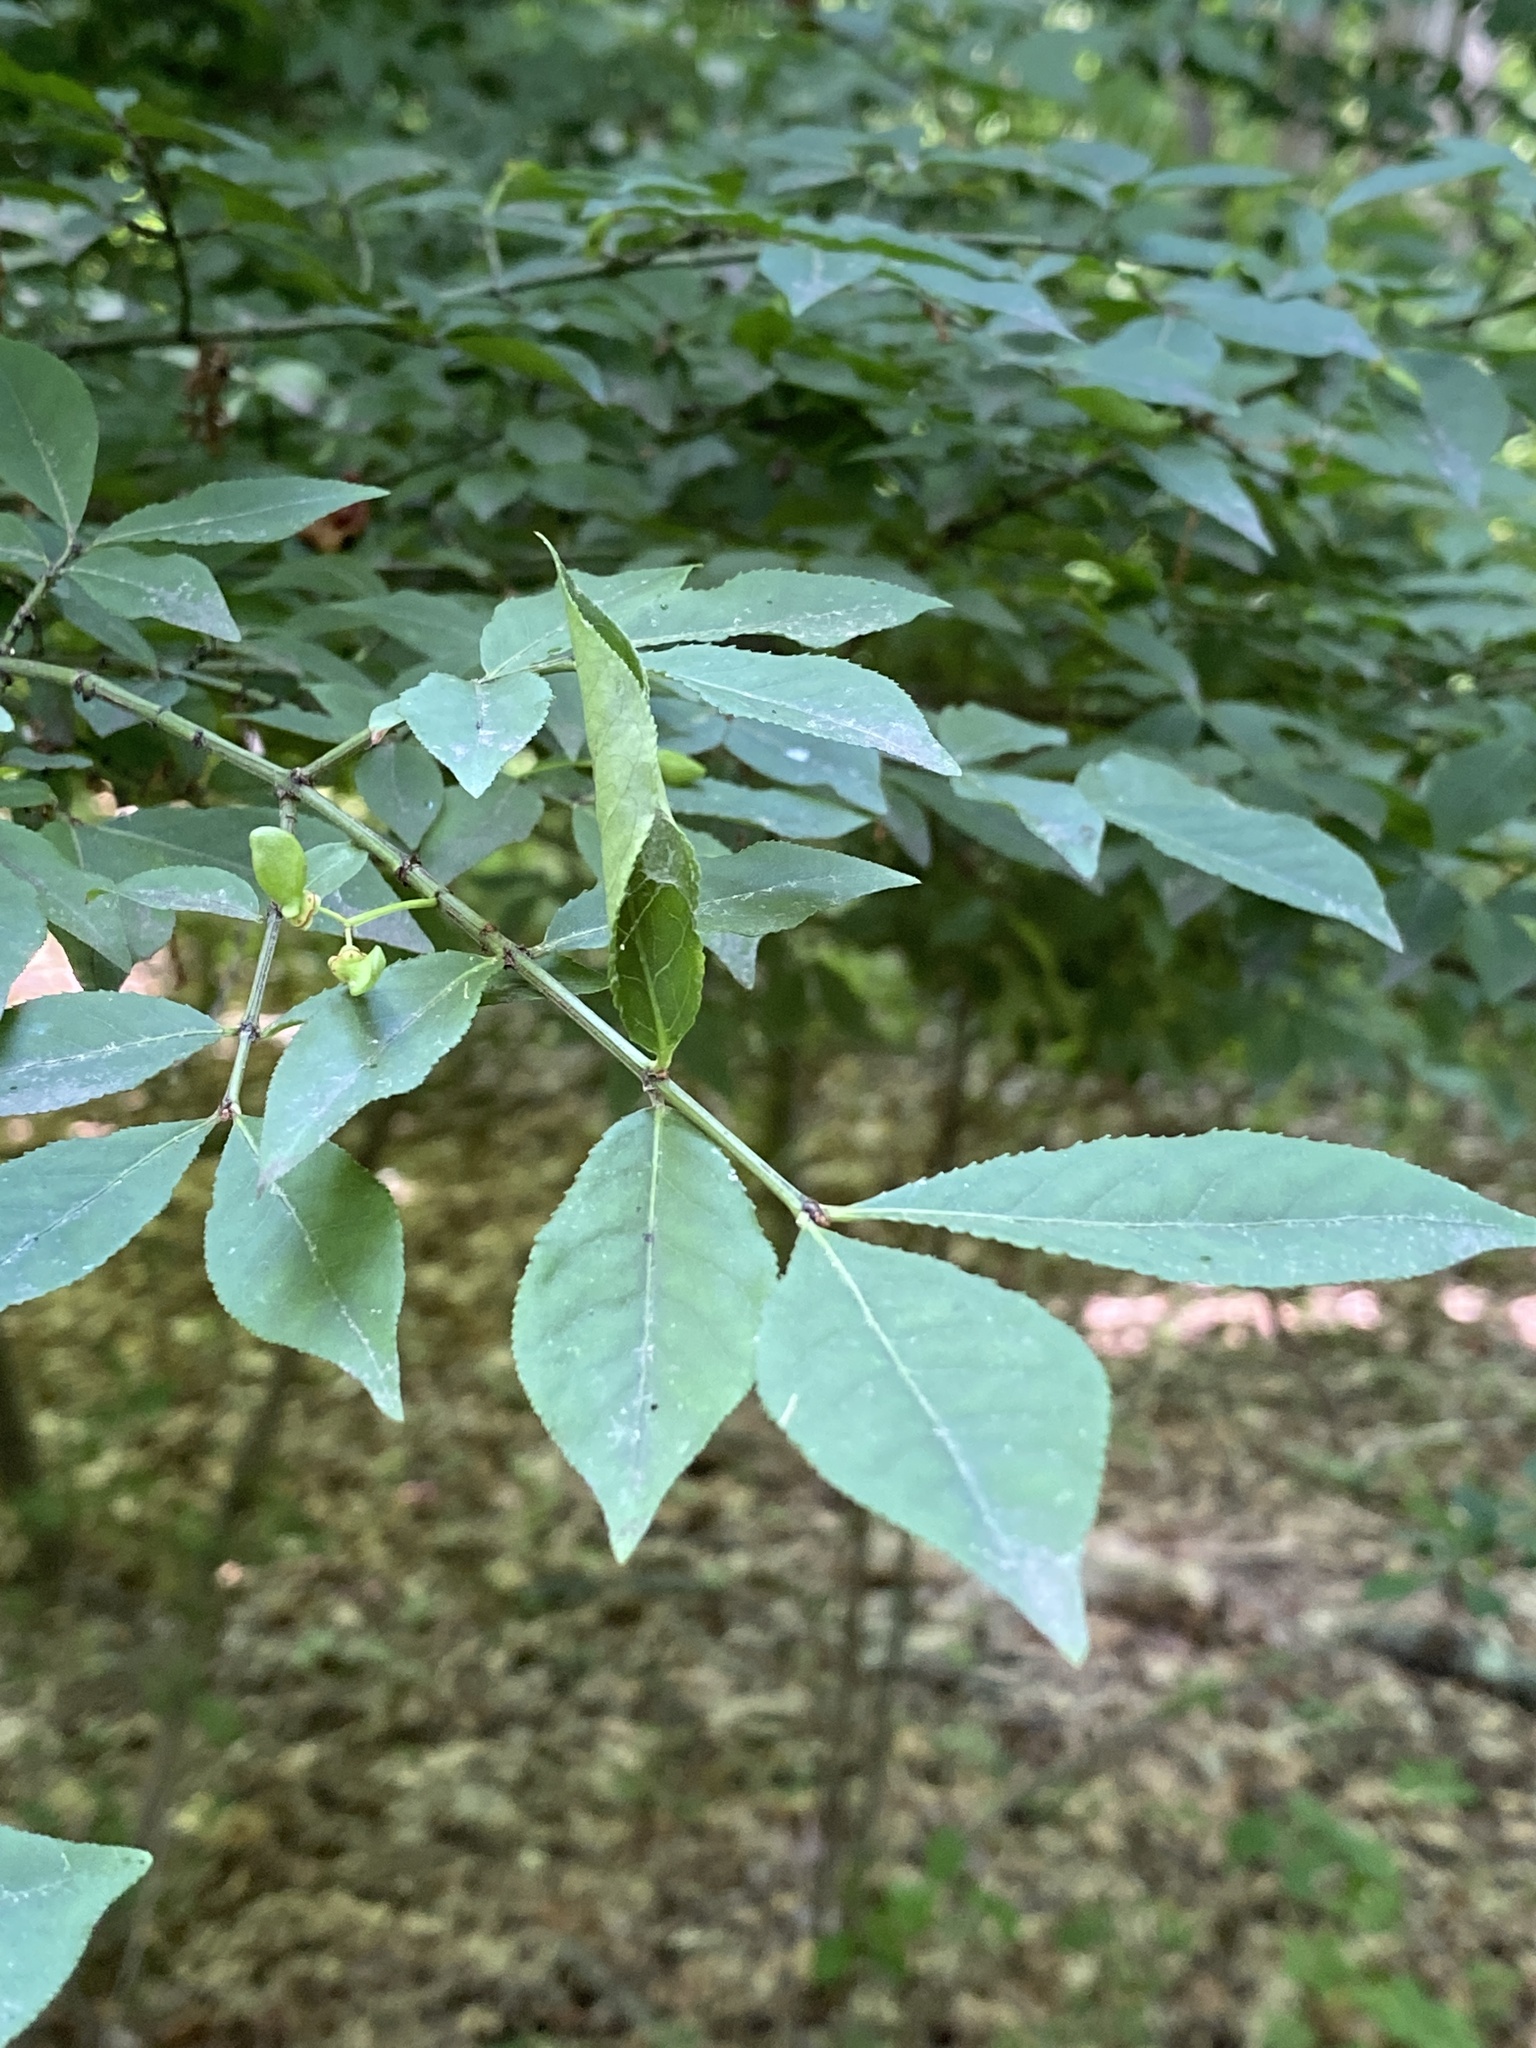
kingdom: Plantae
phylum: Tracheophyta
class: Magnoliopsida
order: Celastrales
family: Celastraceae
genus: Euonymus
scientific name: Euonymus alatus
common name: Winged euonymus
